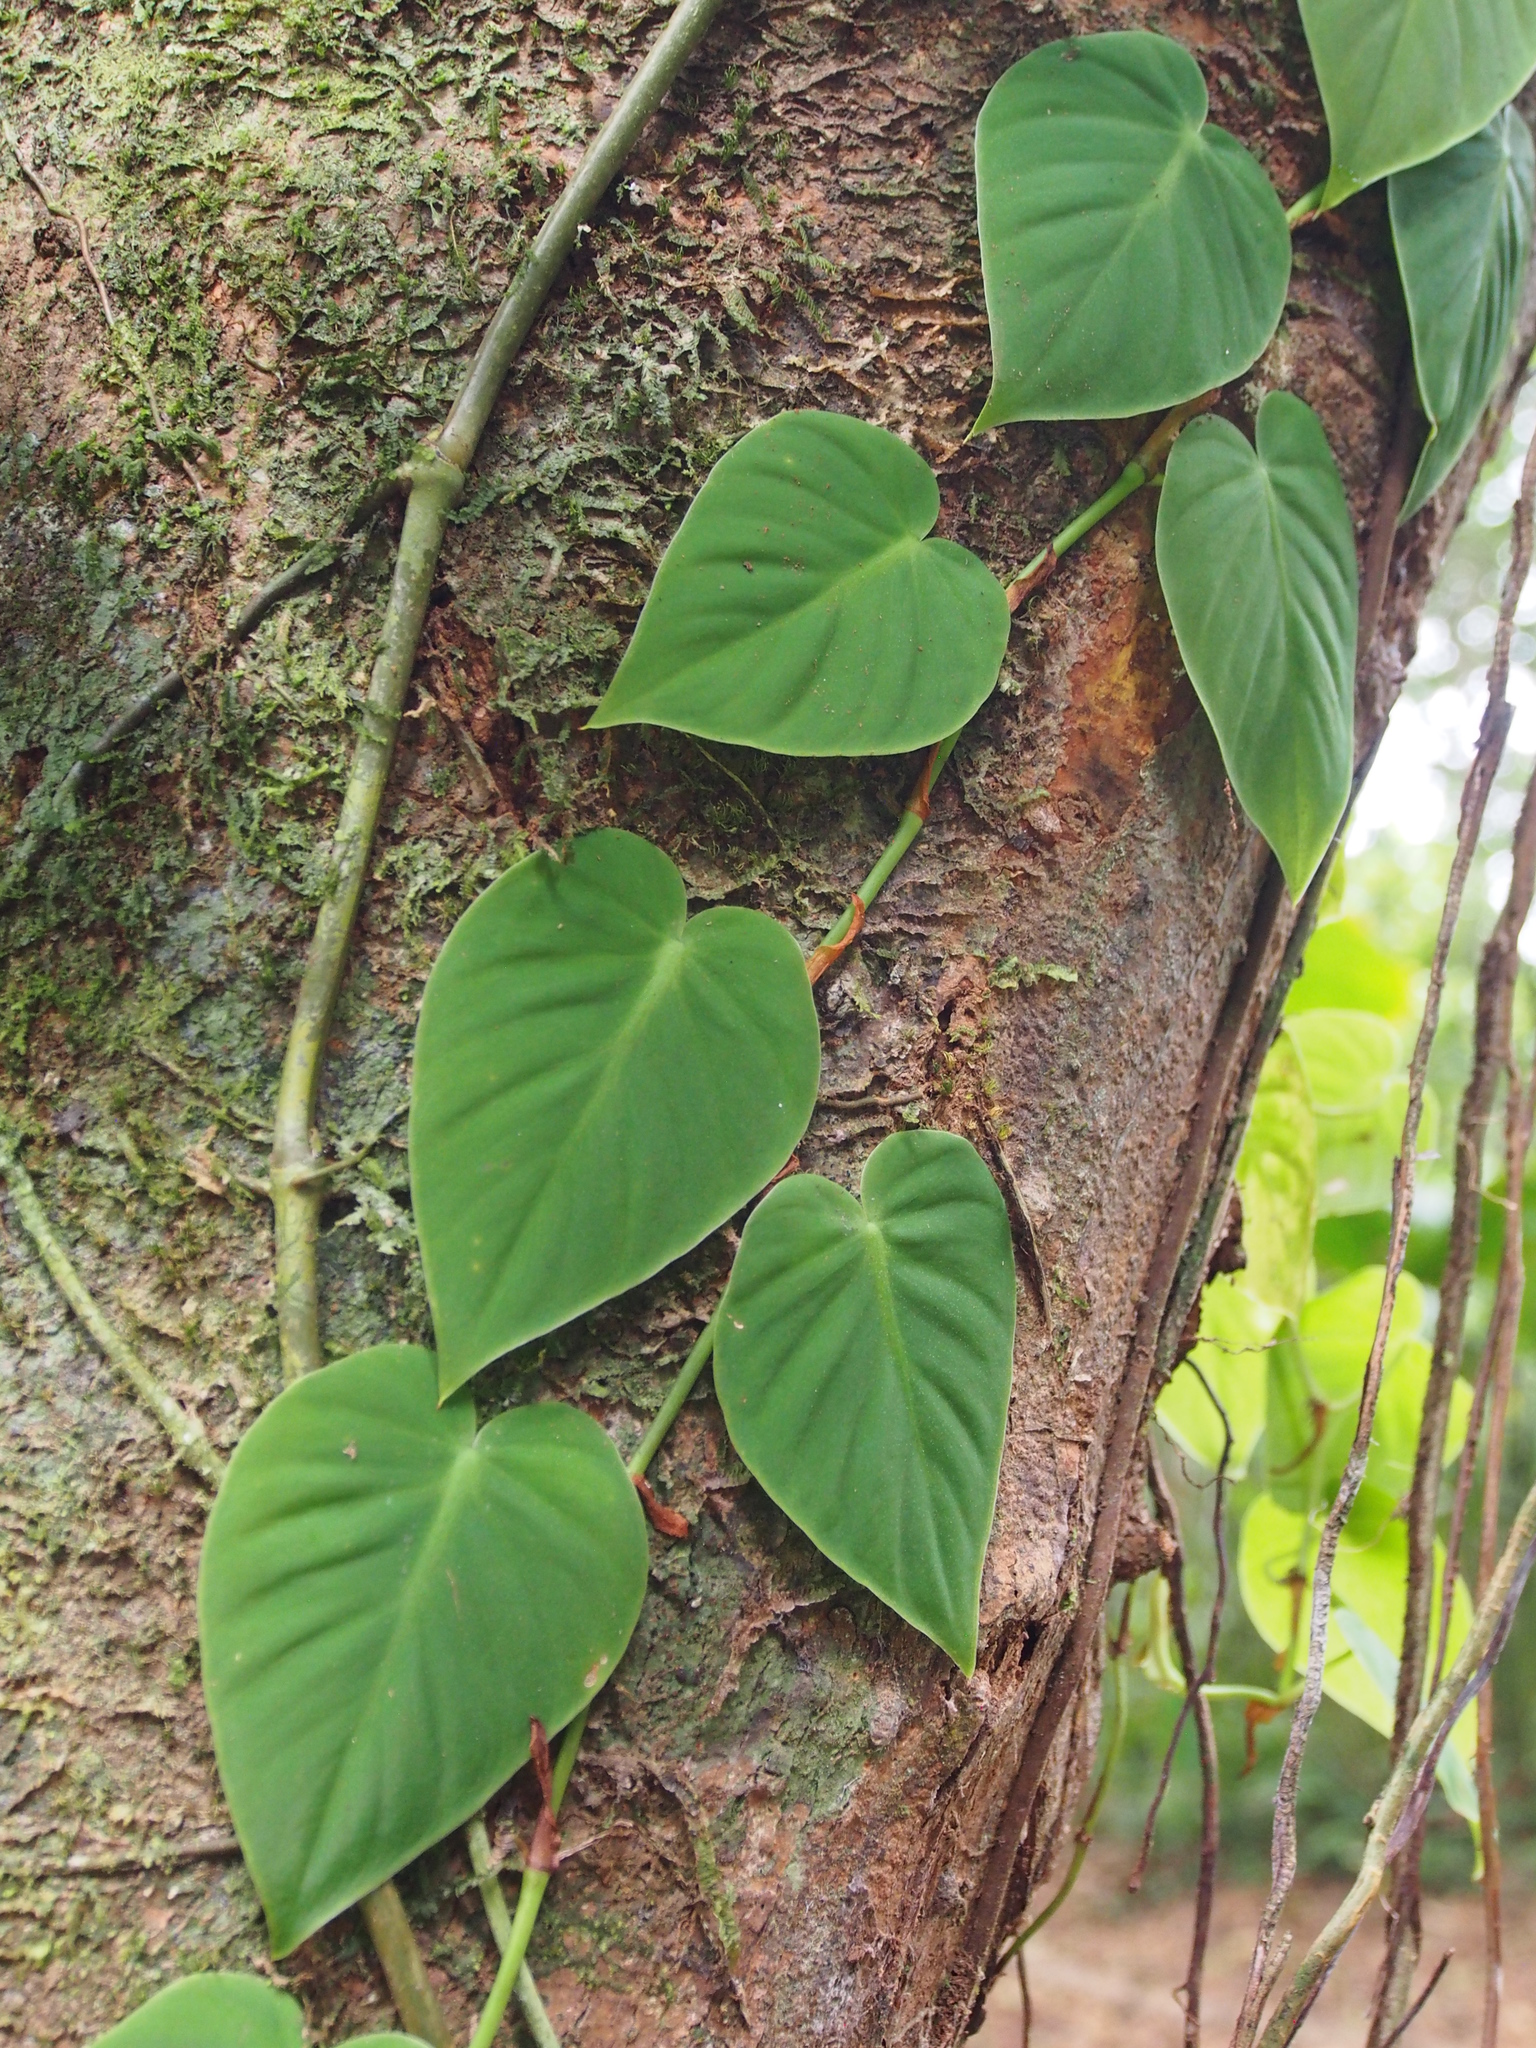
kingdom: Plantae
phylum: Tracheophyta
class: Liliopsida
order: Alismatales
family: Araceae
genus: Philodendron
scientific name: Philodendron hederaceum
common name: Vilevine
